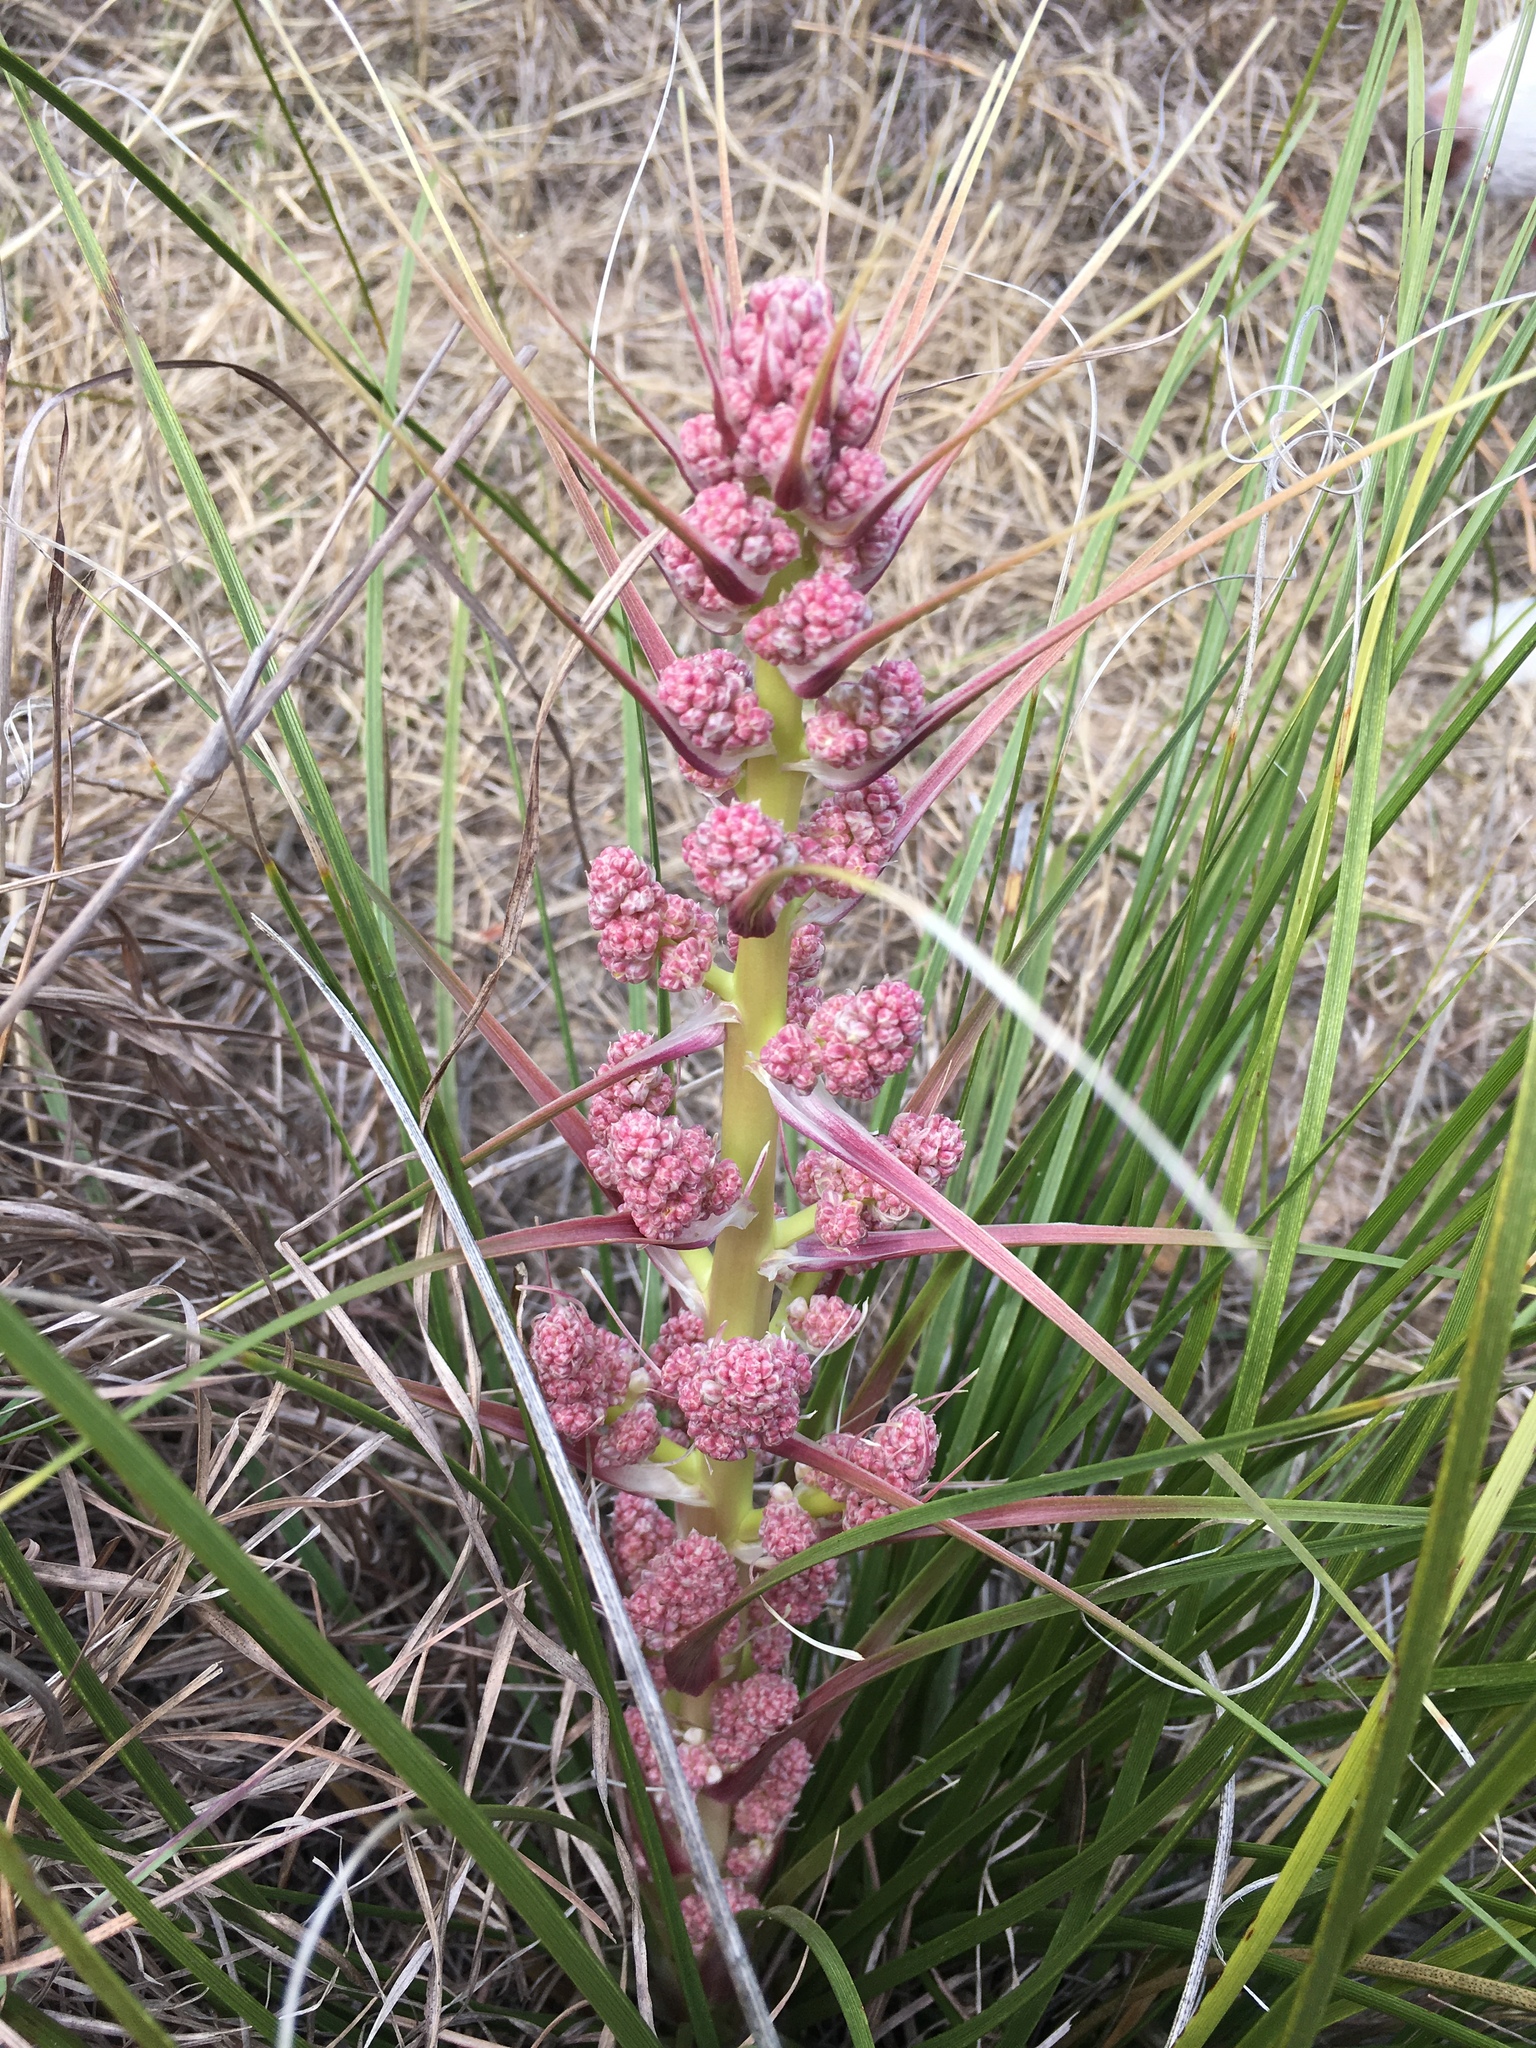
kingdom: Plantae
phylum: Tracheophyta
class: Liliopsida
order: Asparagales
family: Asparagaceae
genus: Nolina
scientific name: Nolina texana
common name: Texas sacahuiste
